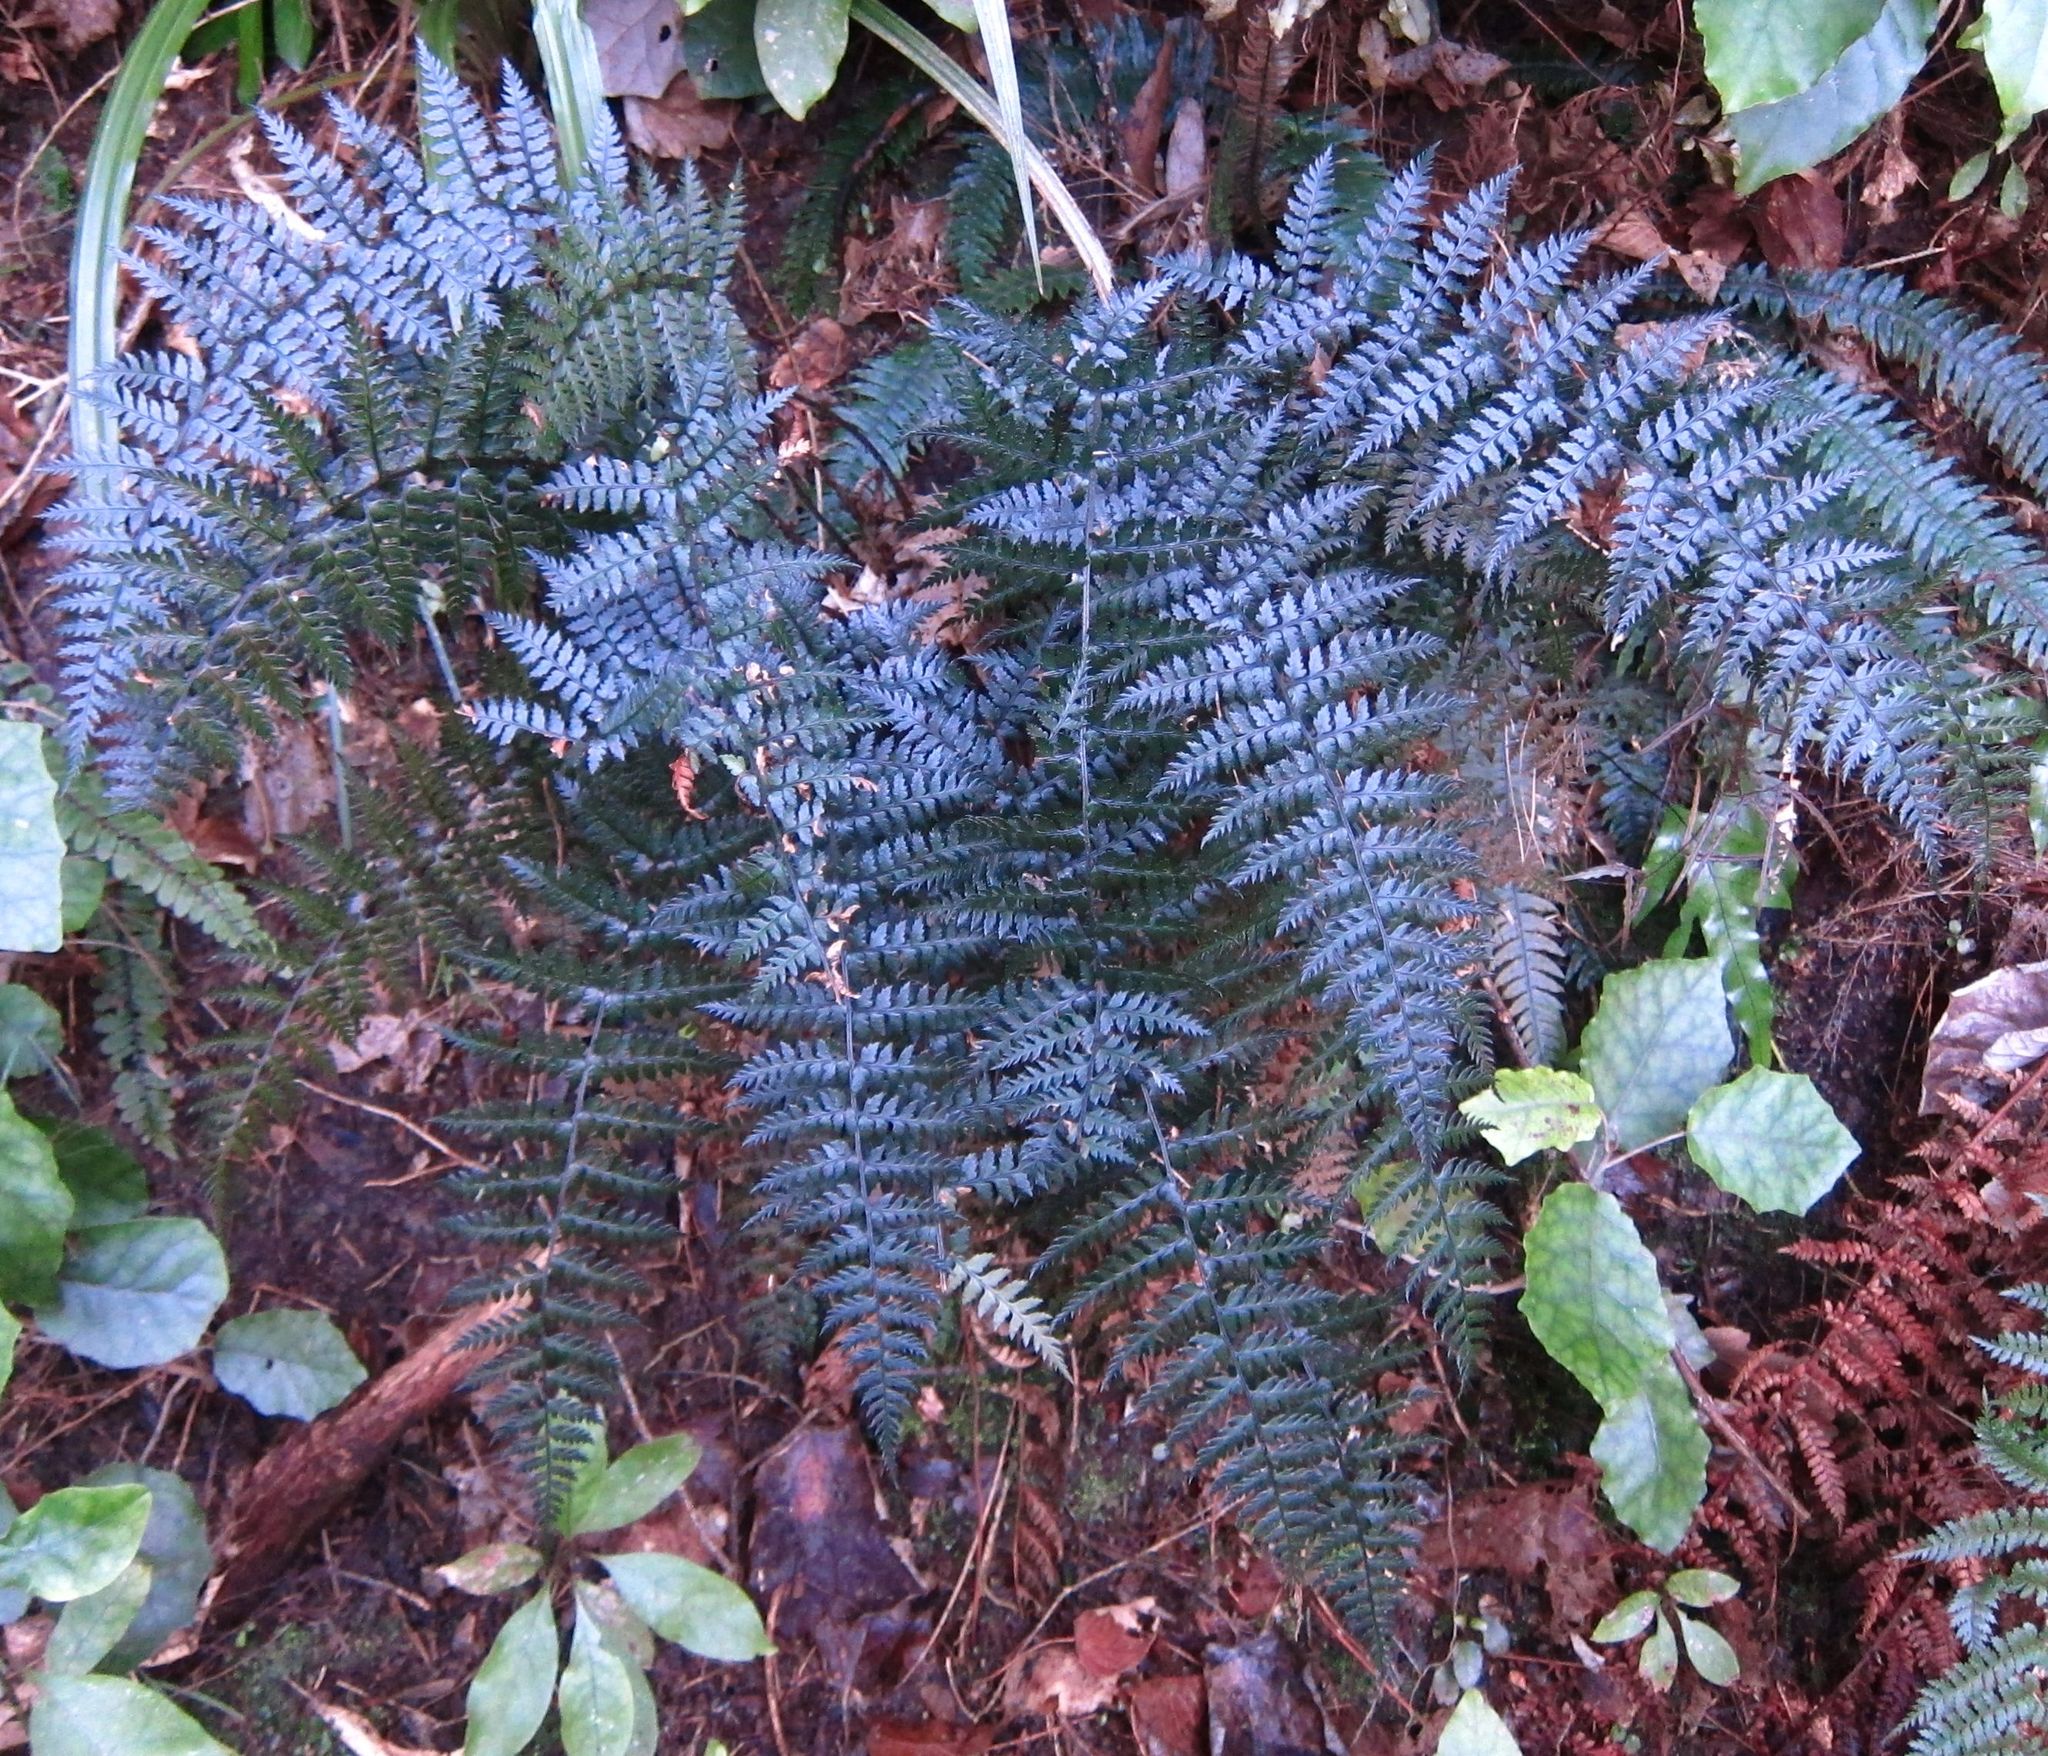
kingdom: Plantae
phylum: Tracheophyta
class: Polypodiopsida
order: Polypodiales
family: Dryopteridaceae
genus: Polystichum
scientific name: Polystichum neozelandicum
